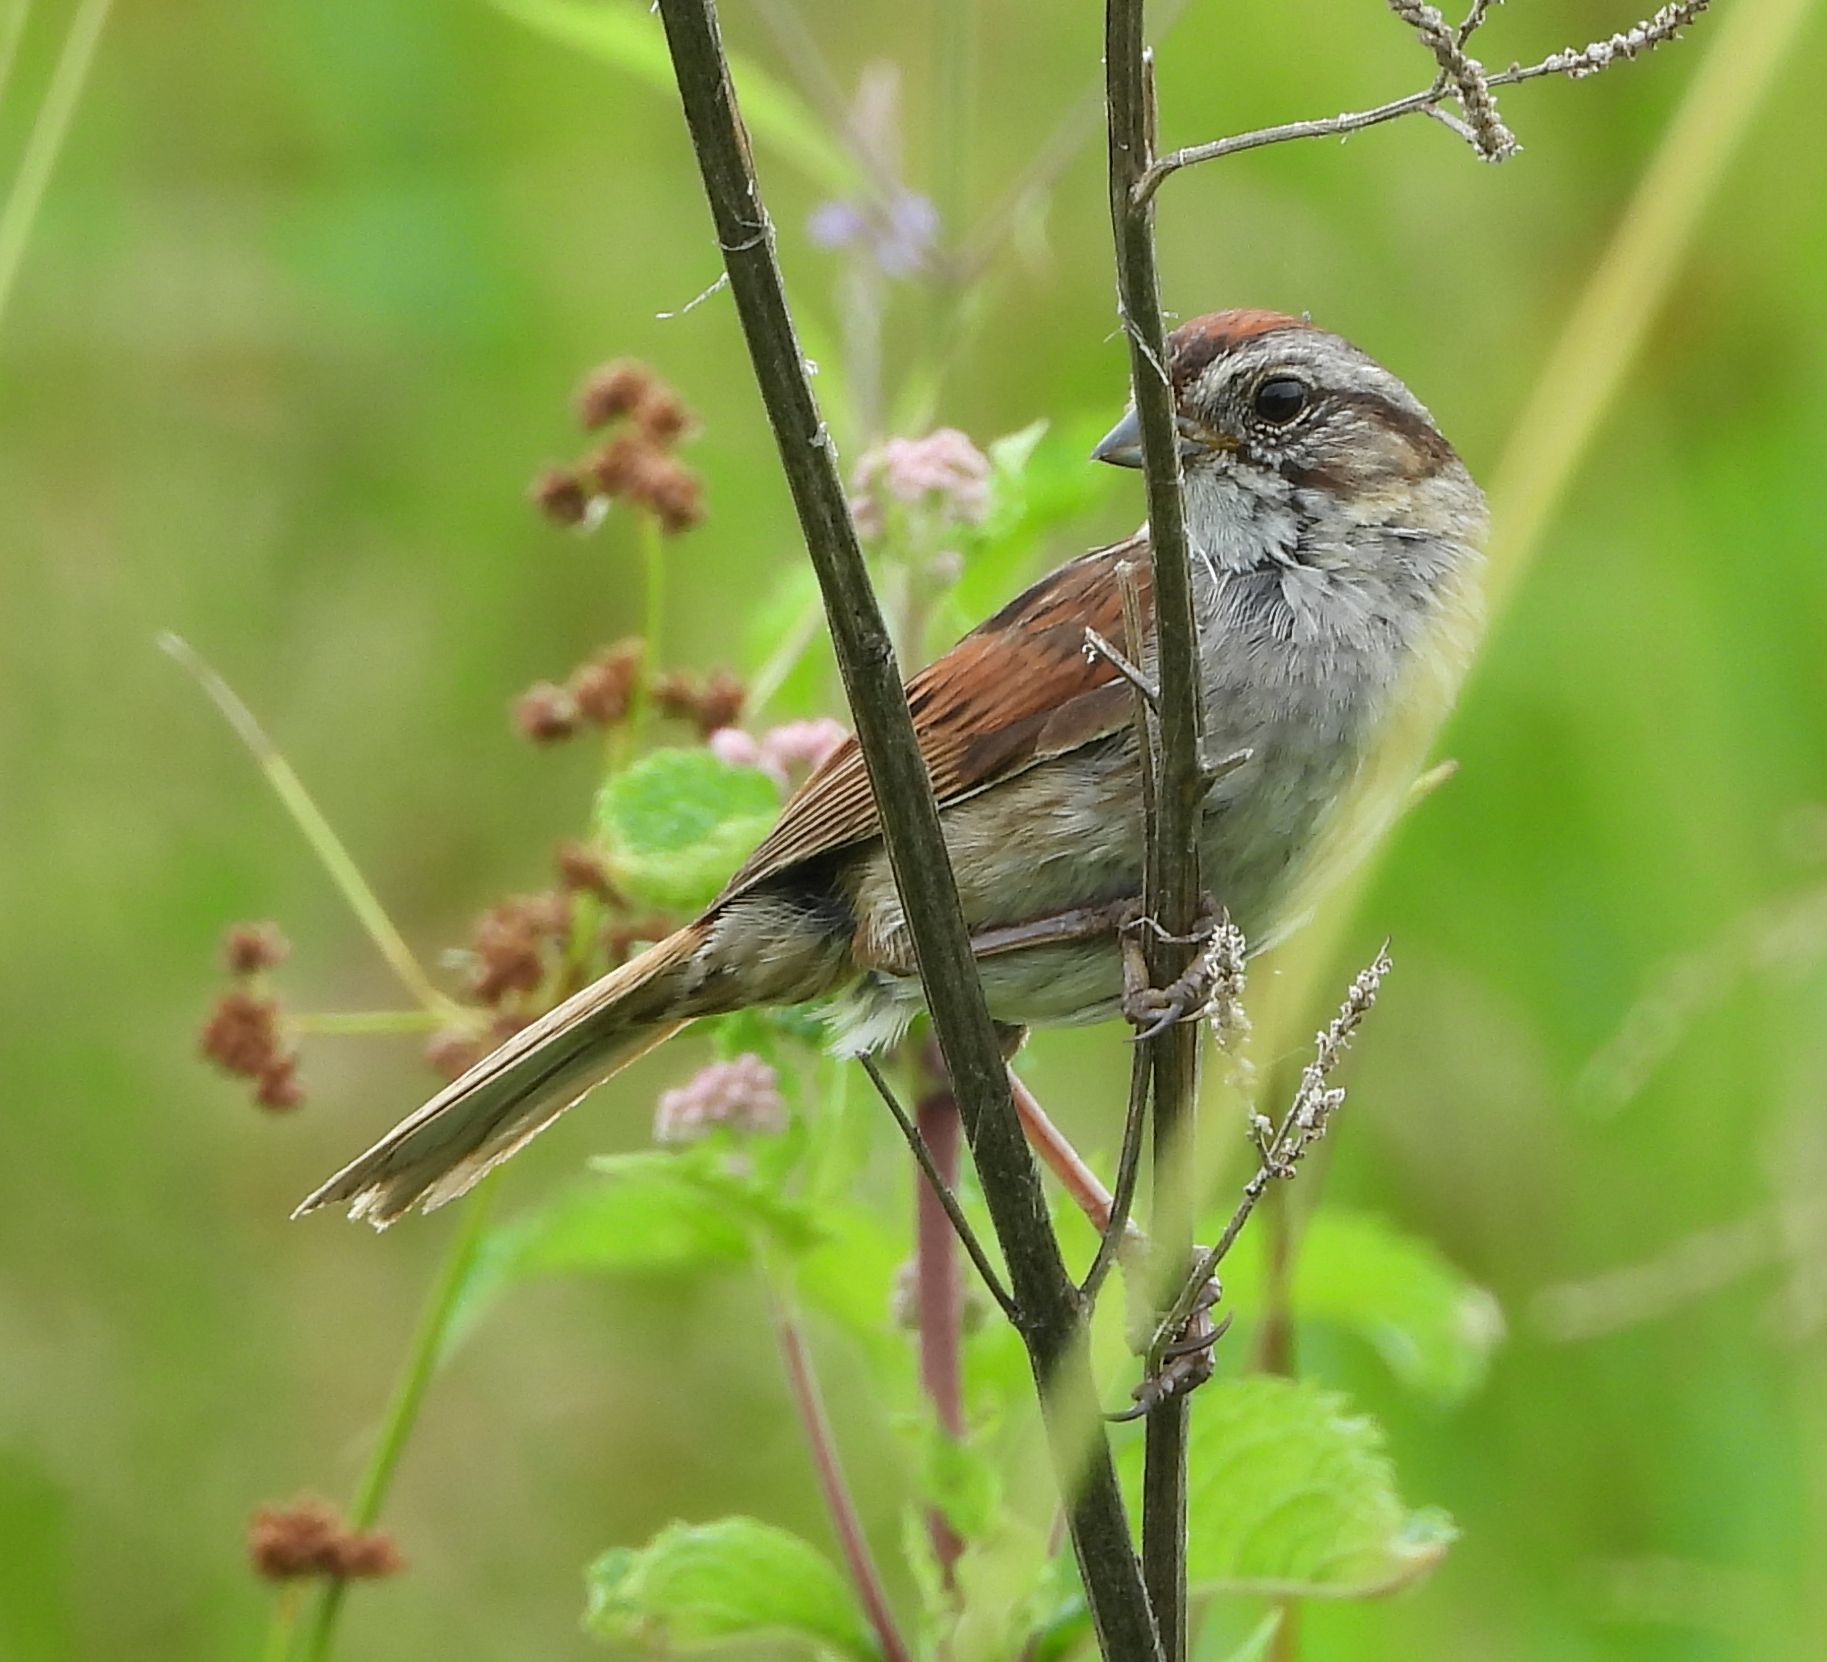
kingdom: Animalia
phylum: Chordata
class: Aves
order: Passeriformes
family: Passerellidae
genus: Melospiza
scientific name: Melospiza georgiana
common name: Swamp sparrow
